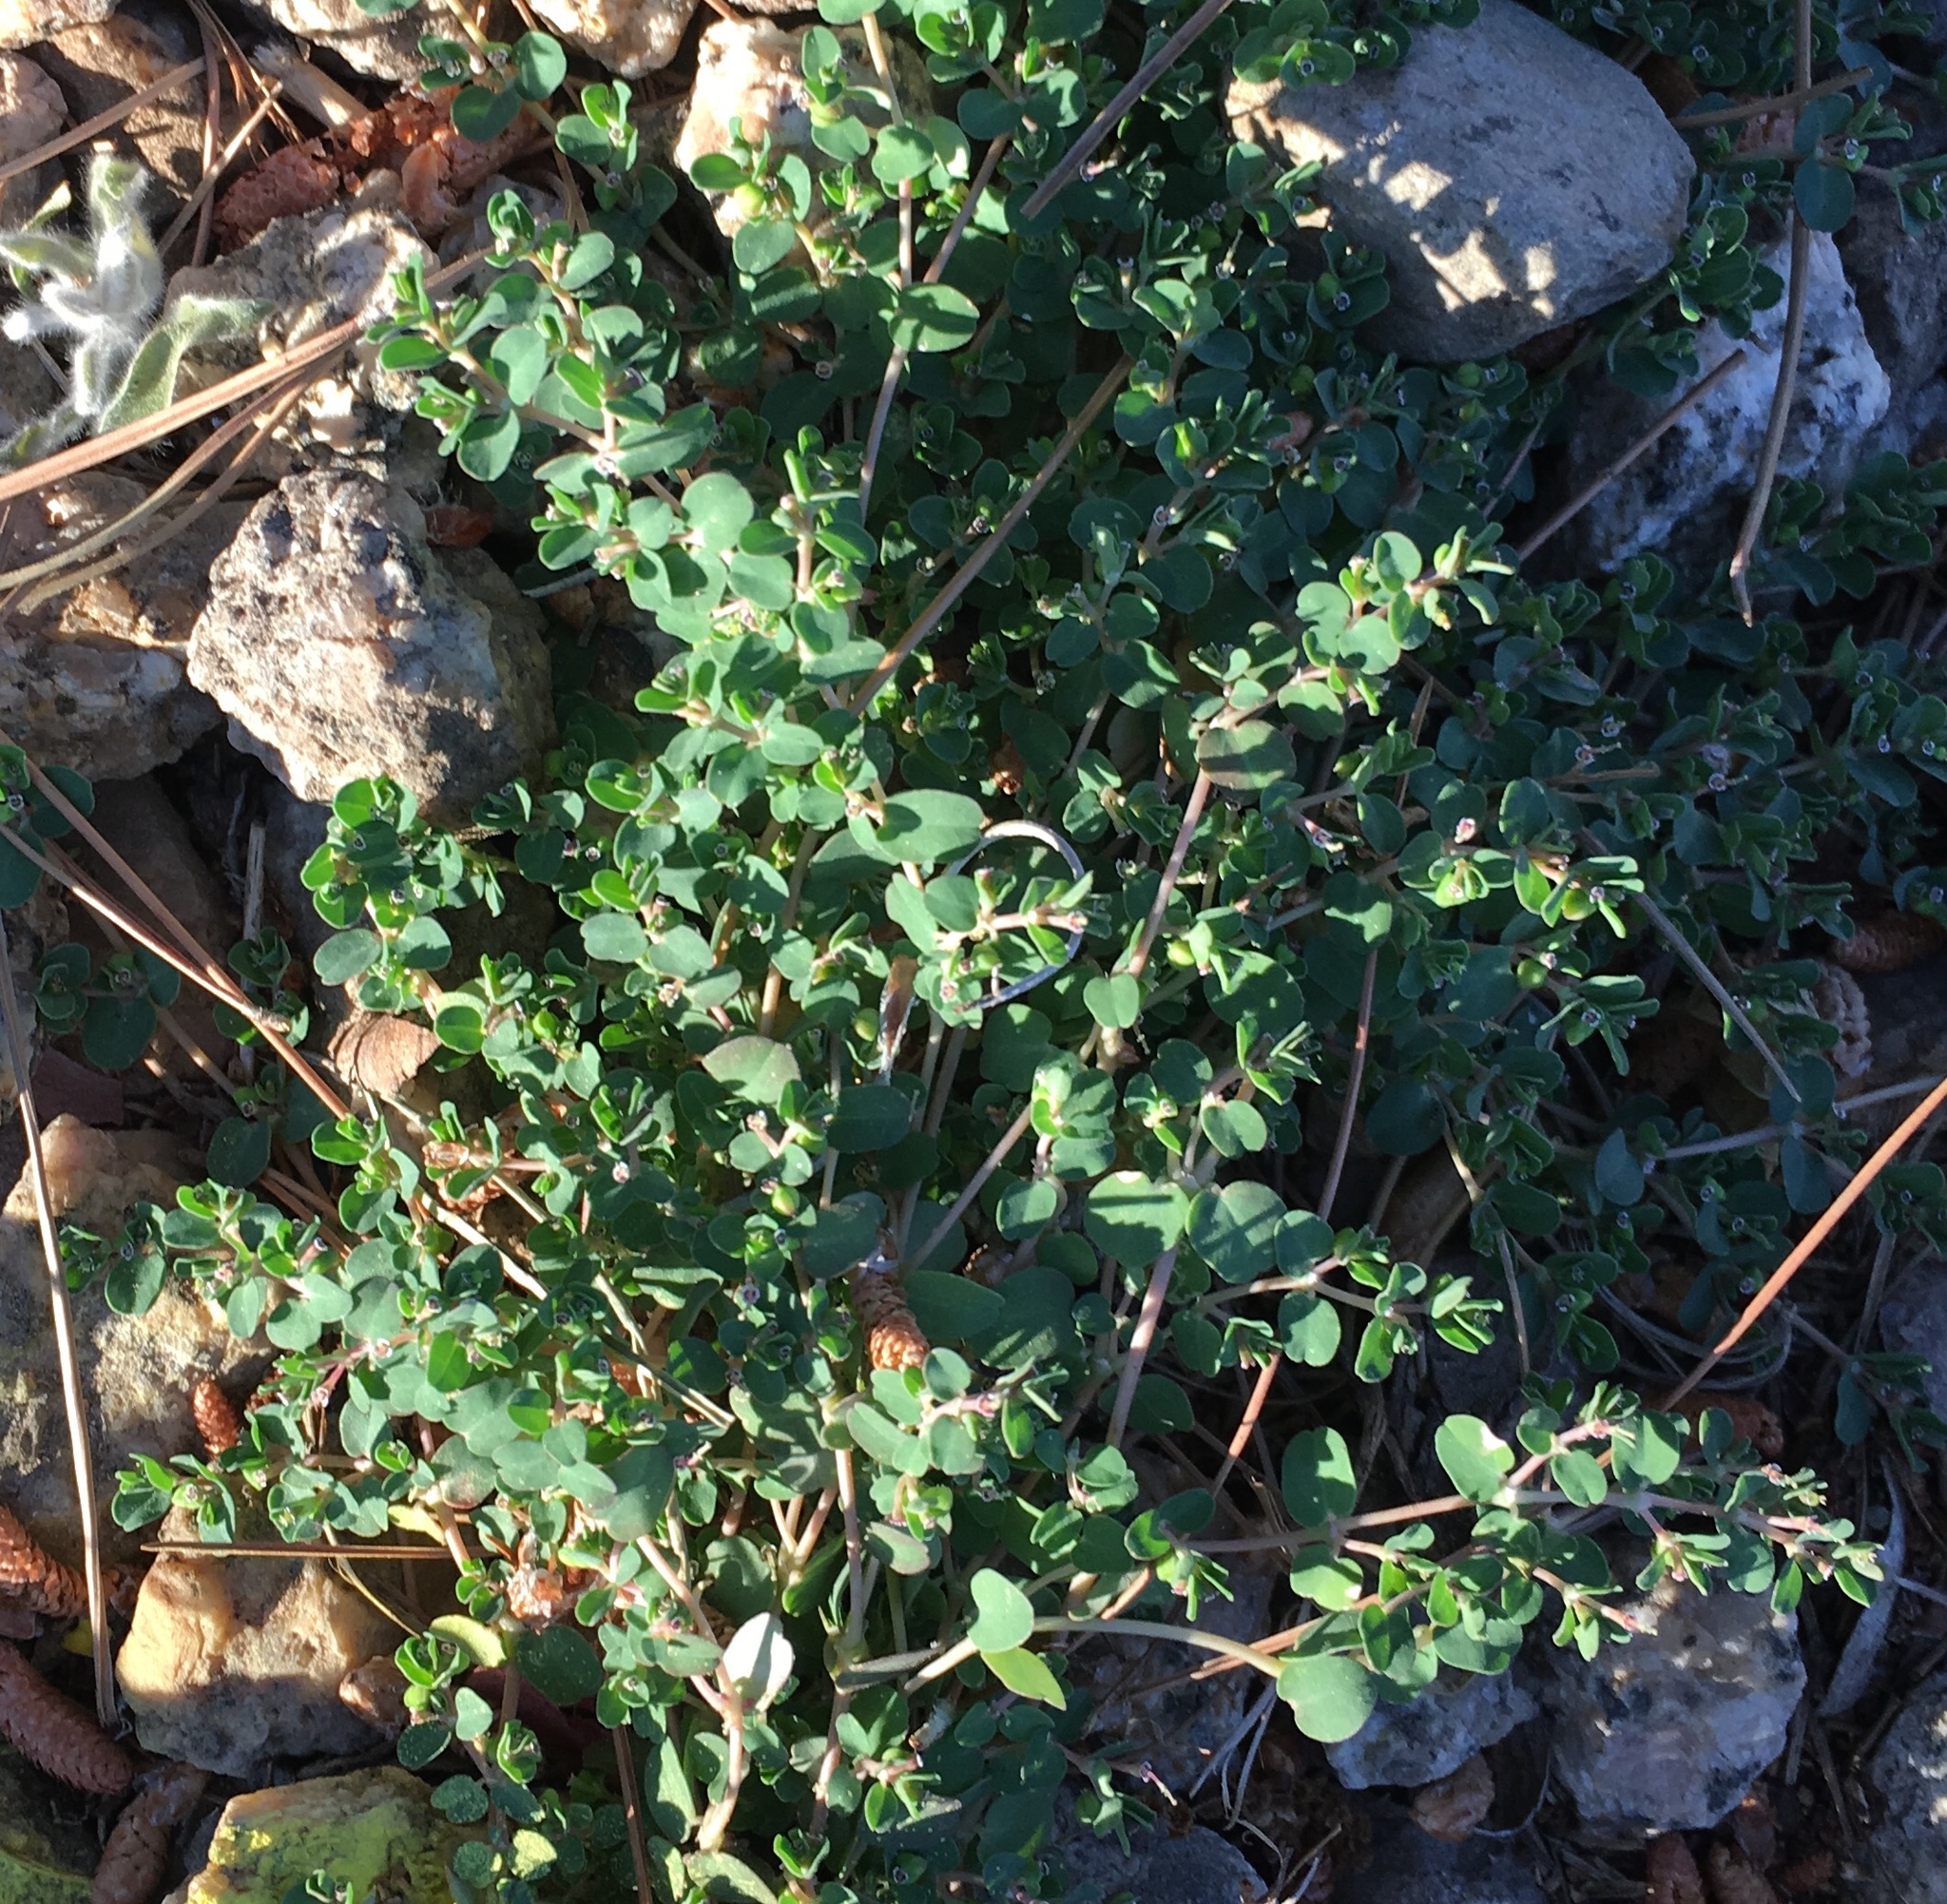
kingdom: Plantae
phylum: Tracheophyta
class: Magnoliopsida
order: Malpighiales
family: Euphorbiaceae
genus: Euphorbia
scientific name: Euphorbia serpens
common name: Matted sandmat
